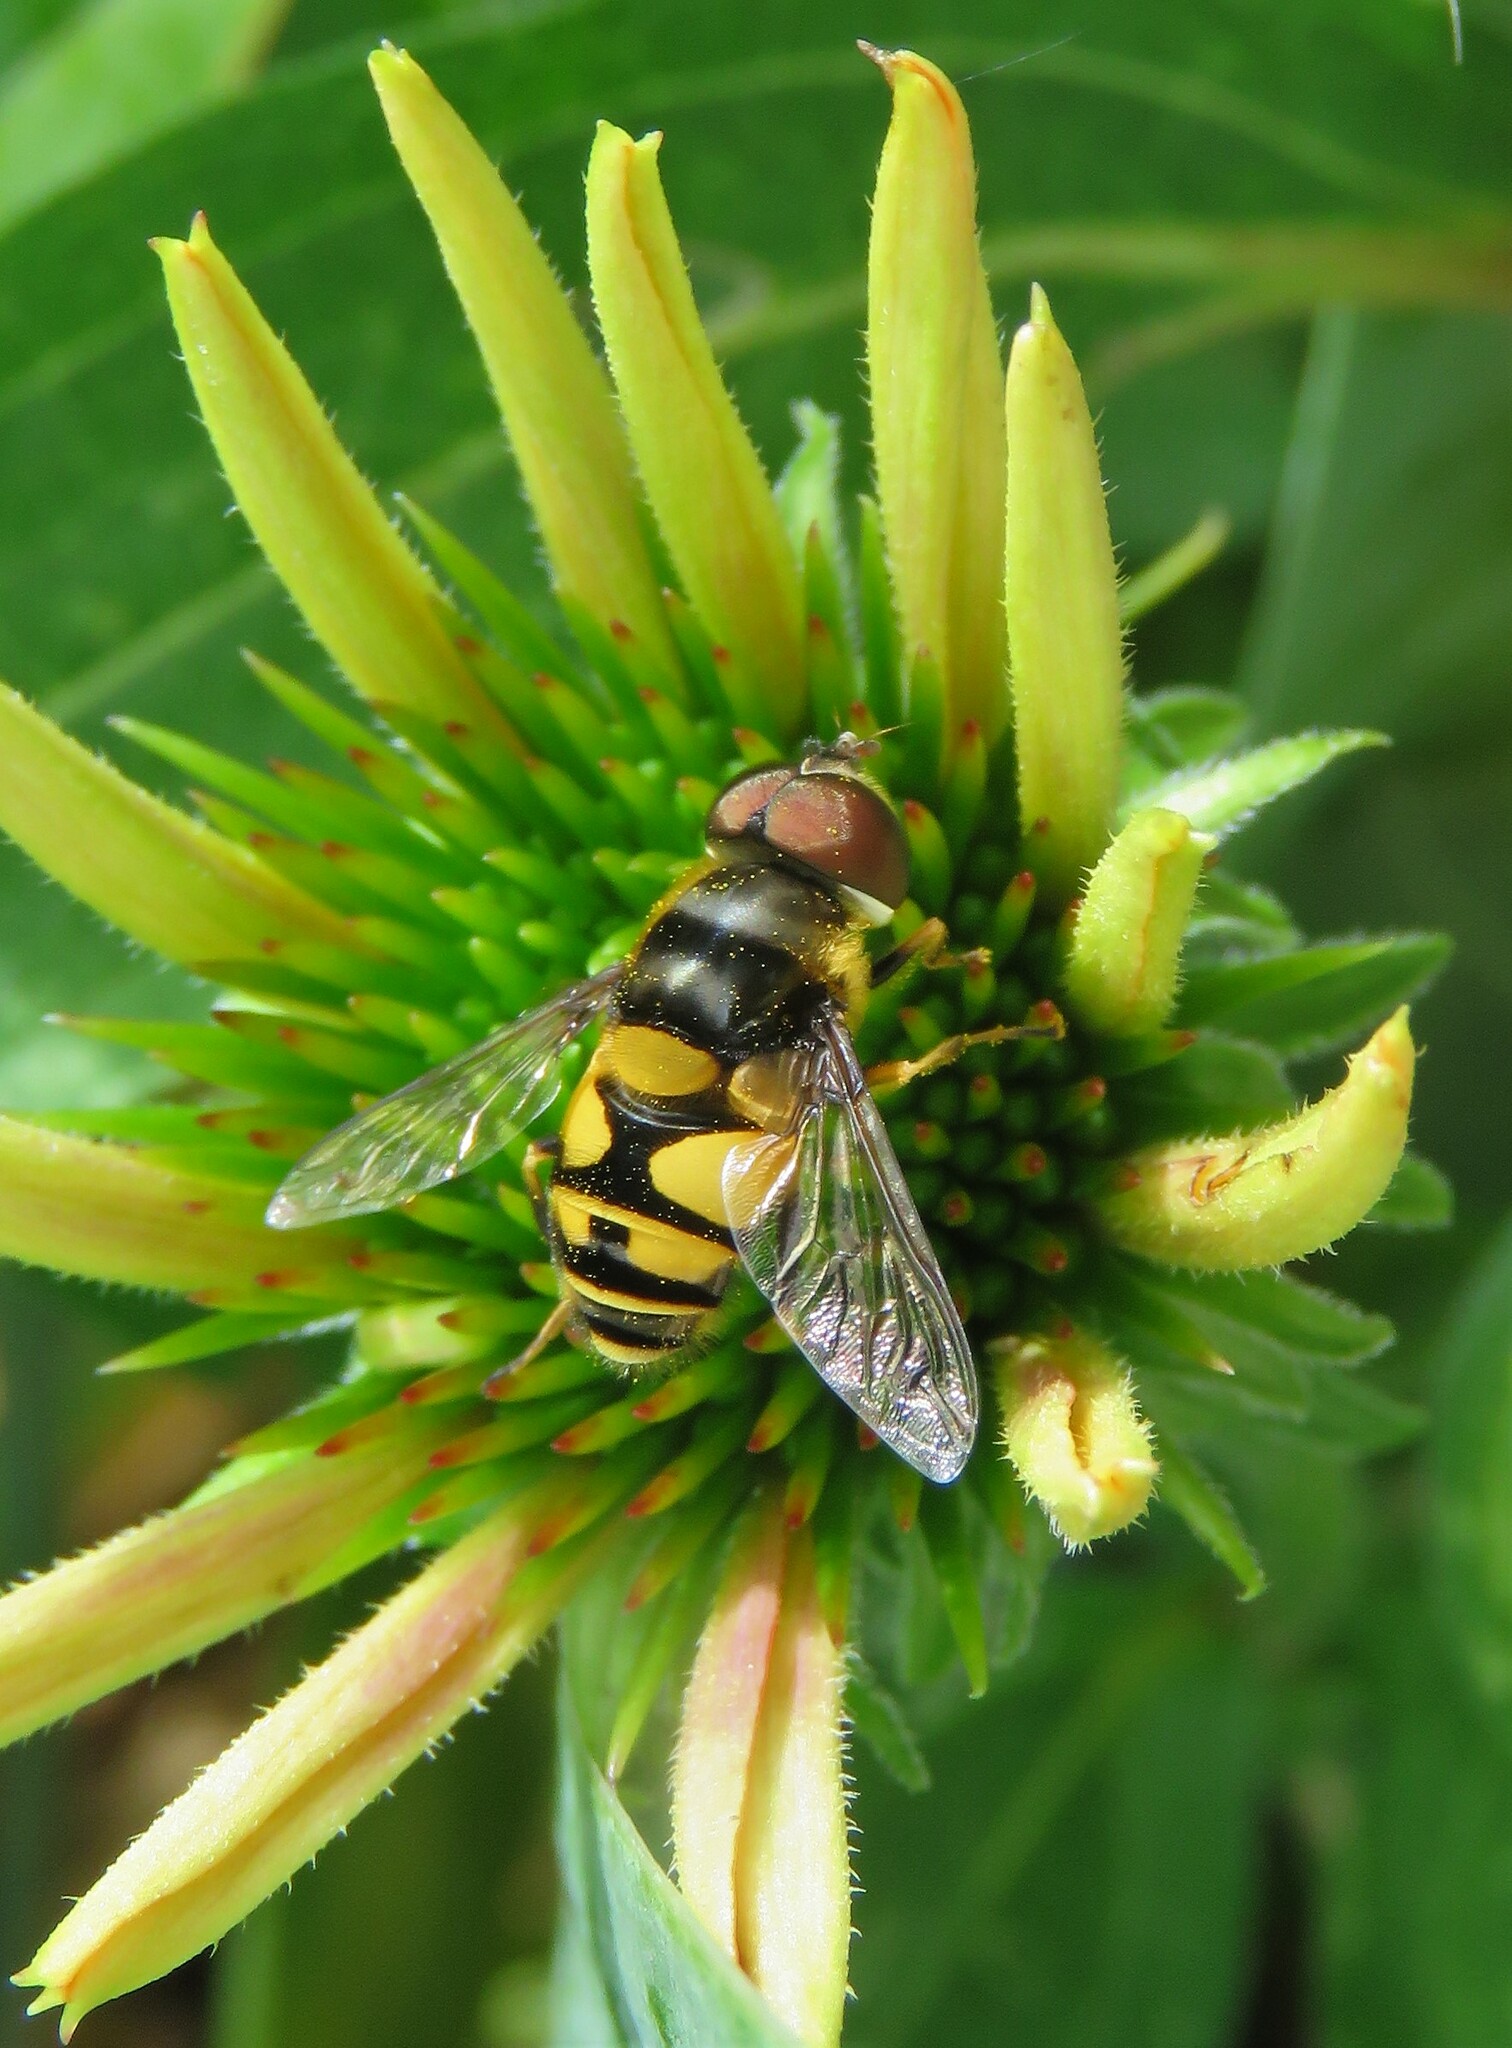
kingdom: Animalia
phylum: Arthropoda
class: Insecta
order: Diptera
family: Syrphidae
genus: Eristalis
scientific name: Eristalis transversa
